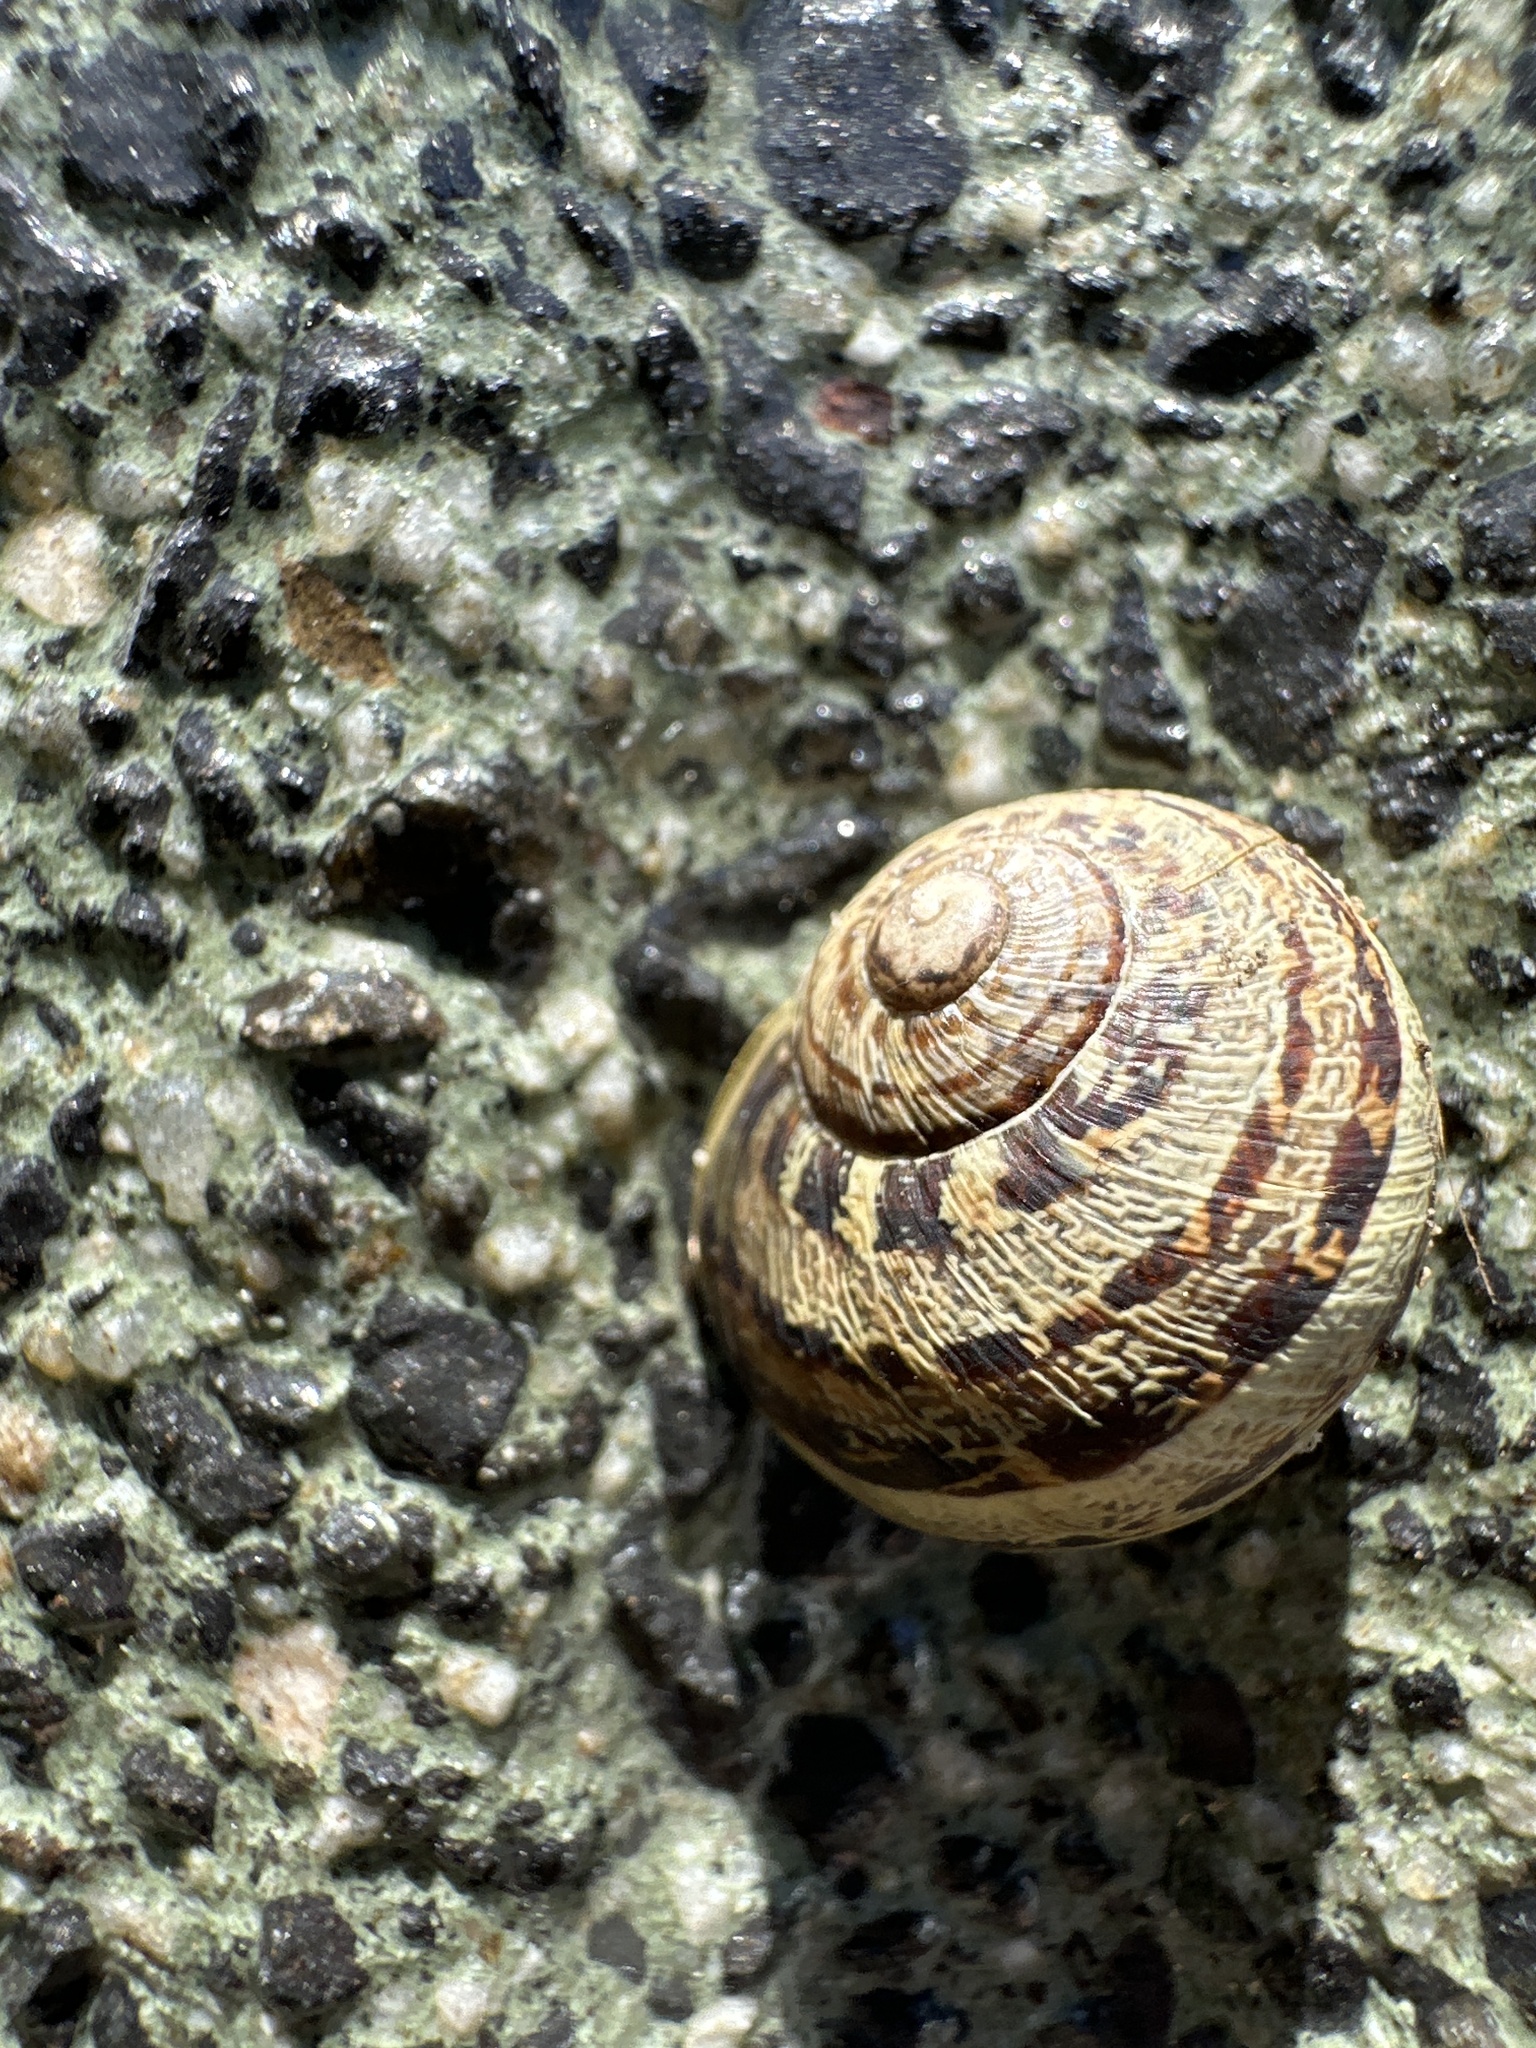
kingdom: Animalia
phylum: Mollusca
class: Gastropoda
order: Stylommatophora
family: Helicidae
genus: Cornu
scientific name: Cornu aspersum
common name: Brown garden snail
